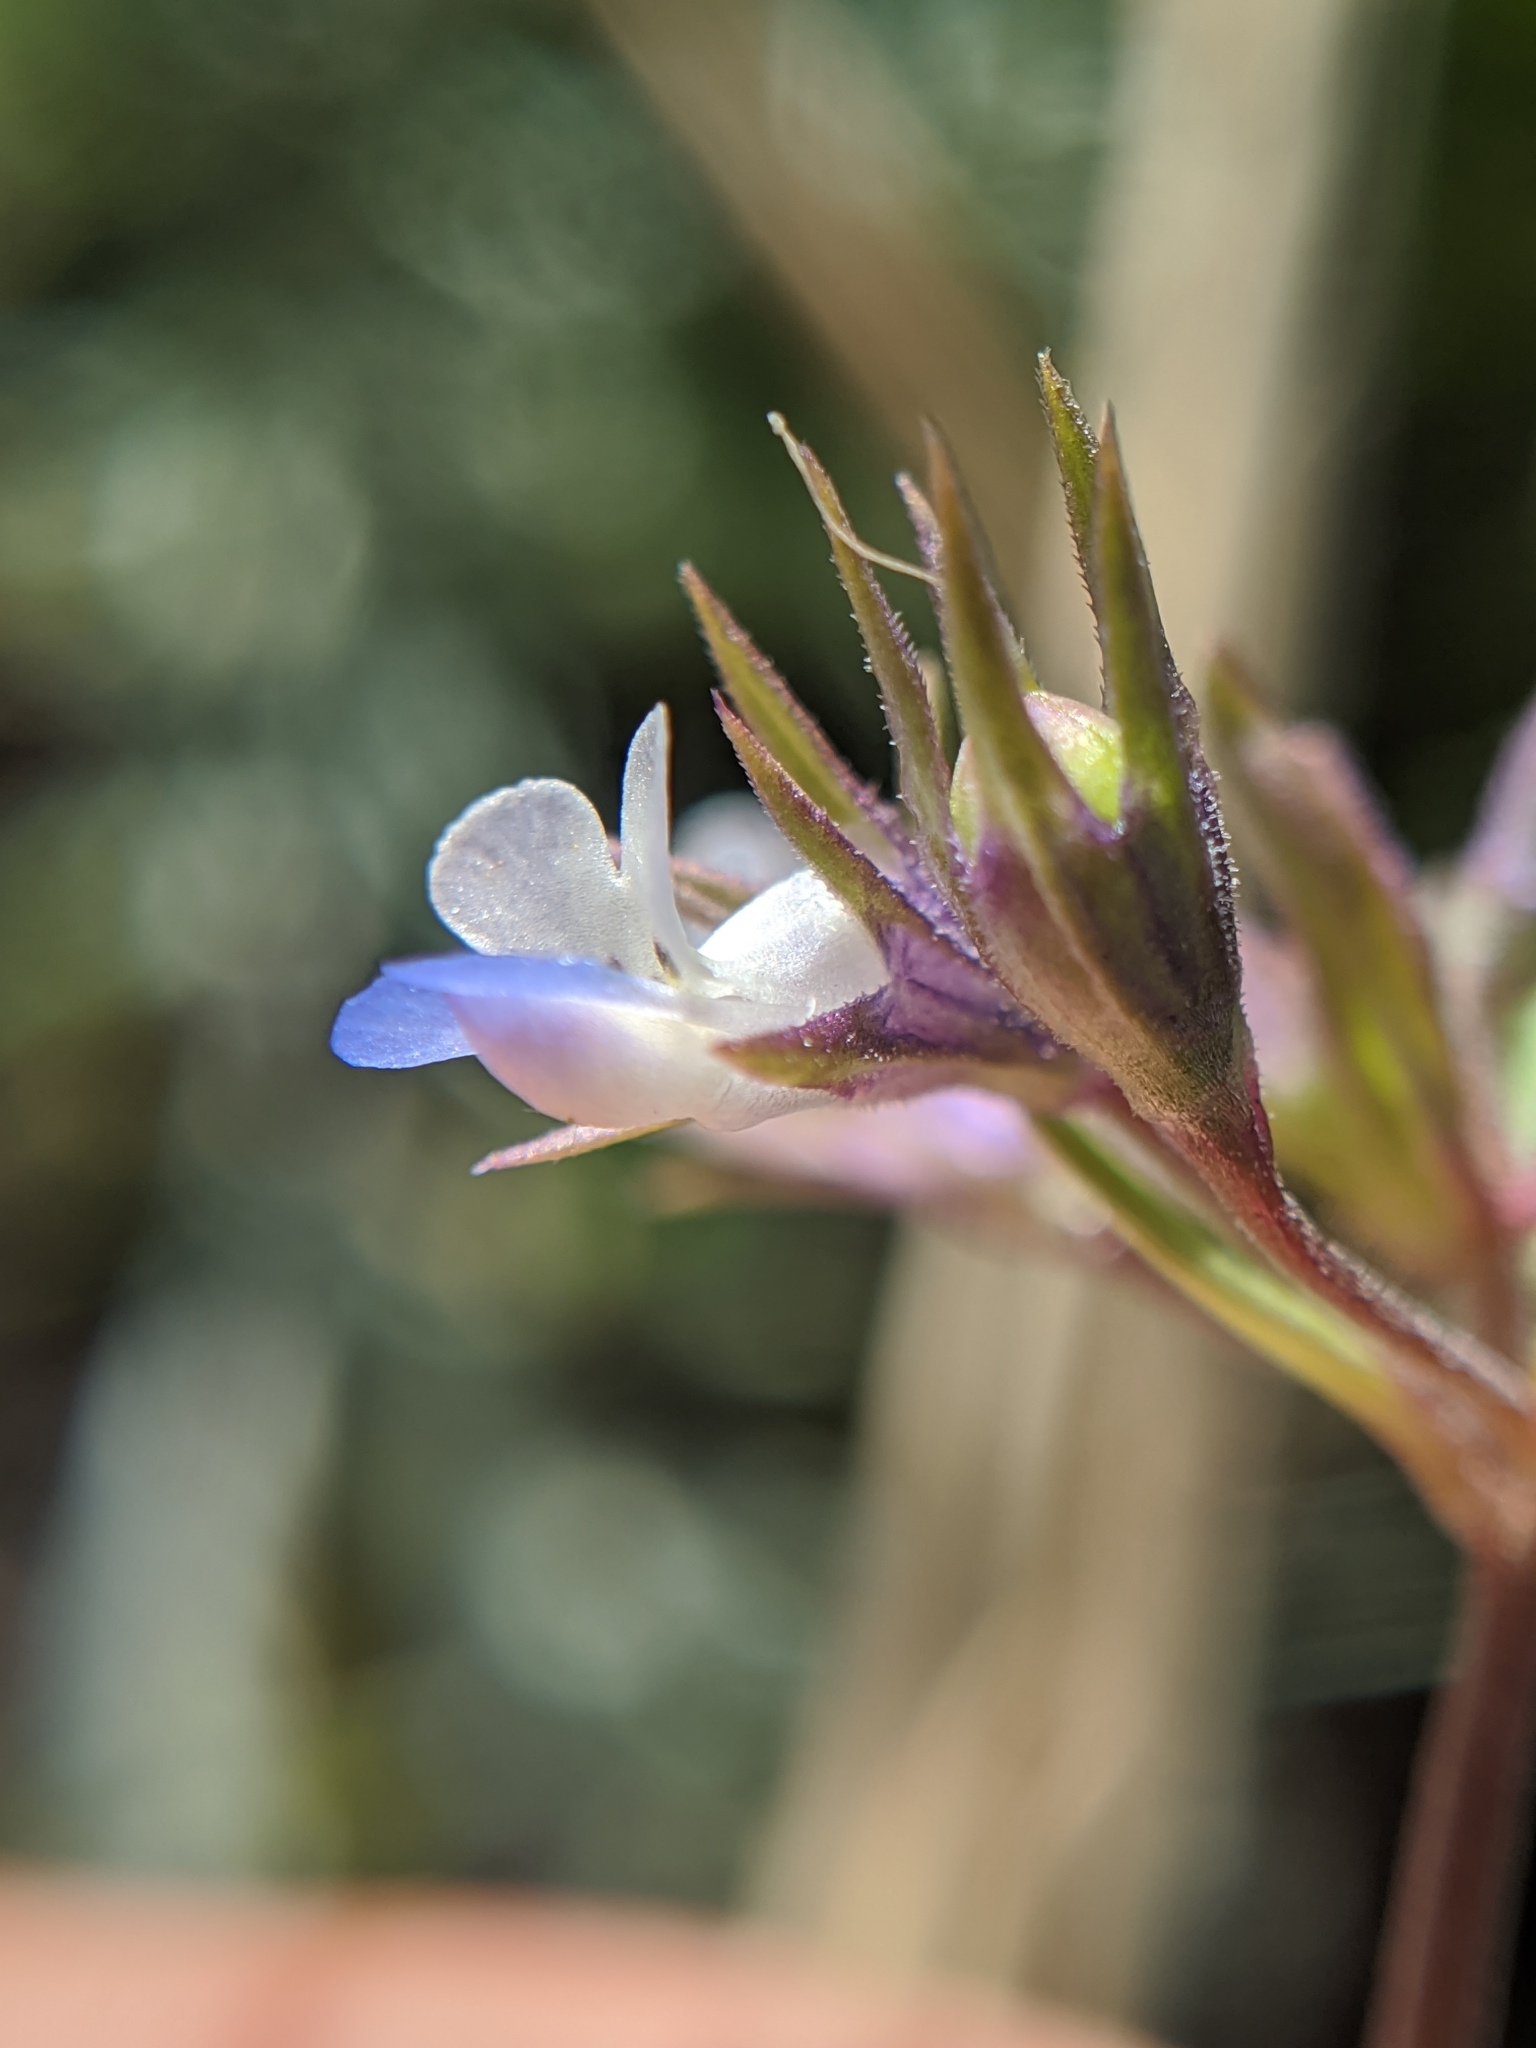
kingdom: Plantae
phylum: Tracheophyta
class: Magnoliopsida
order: Lamiales
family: Plantaginaceae
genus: Collinsia
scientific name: Collinsia parviflora
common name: Blue-lips
